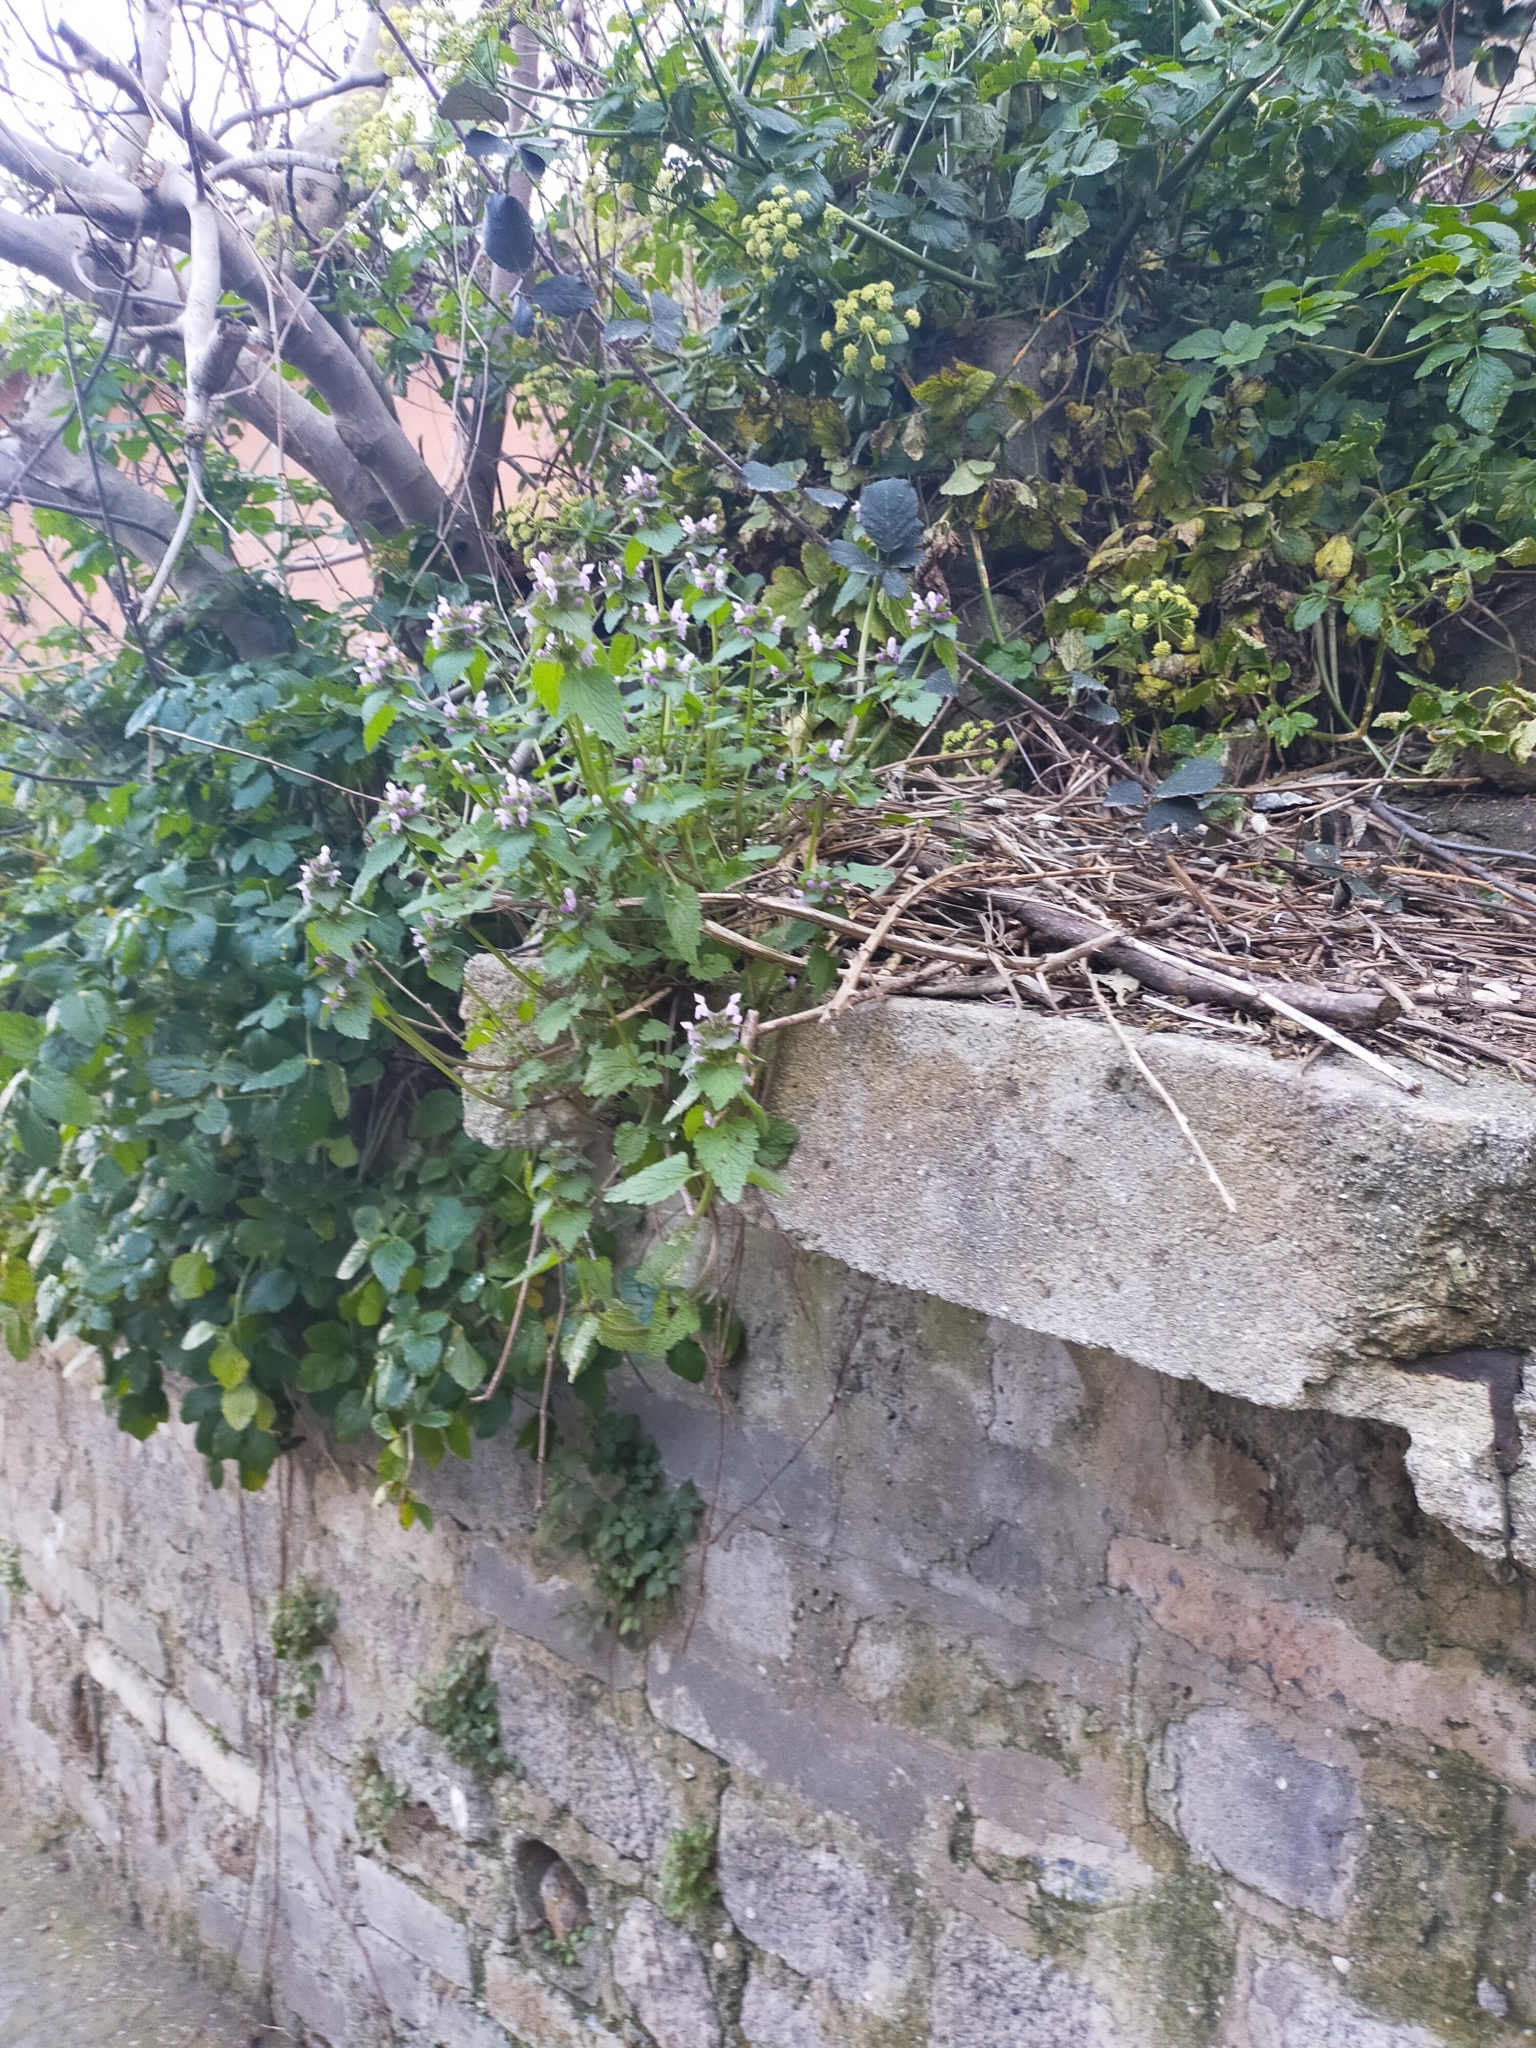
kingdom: Plantae
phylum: Tracheophyta
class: Magnoliopsida
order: Lamiales
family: Lamiaceae
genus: Lamium
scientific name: Lamium purpureum
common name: Red dead-nettle
